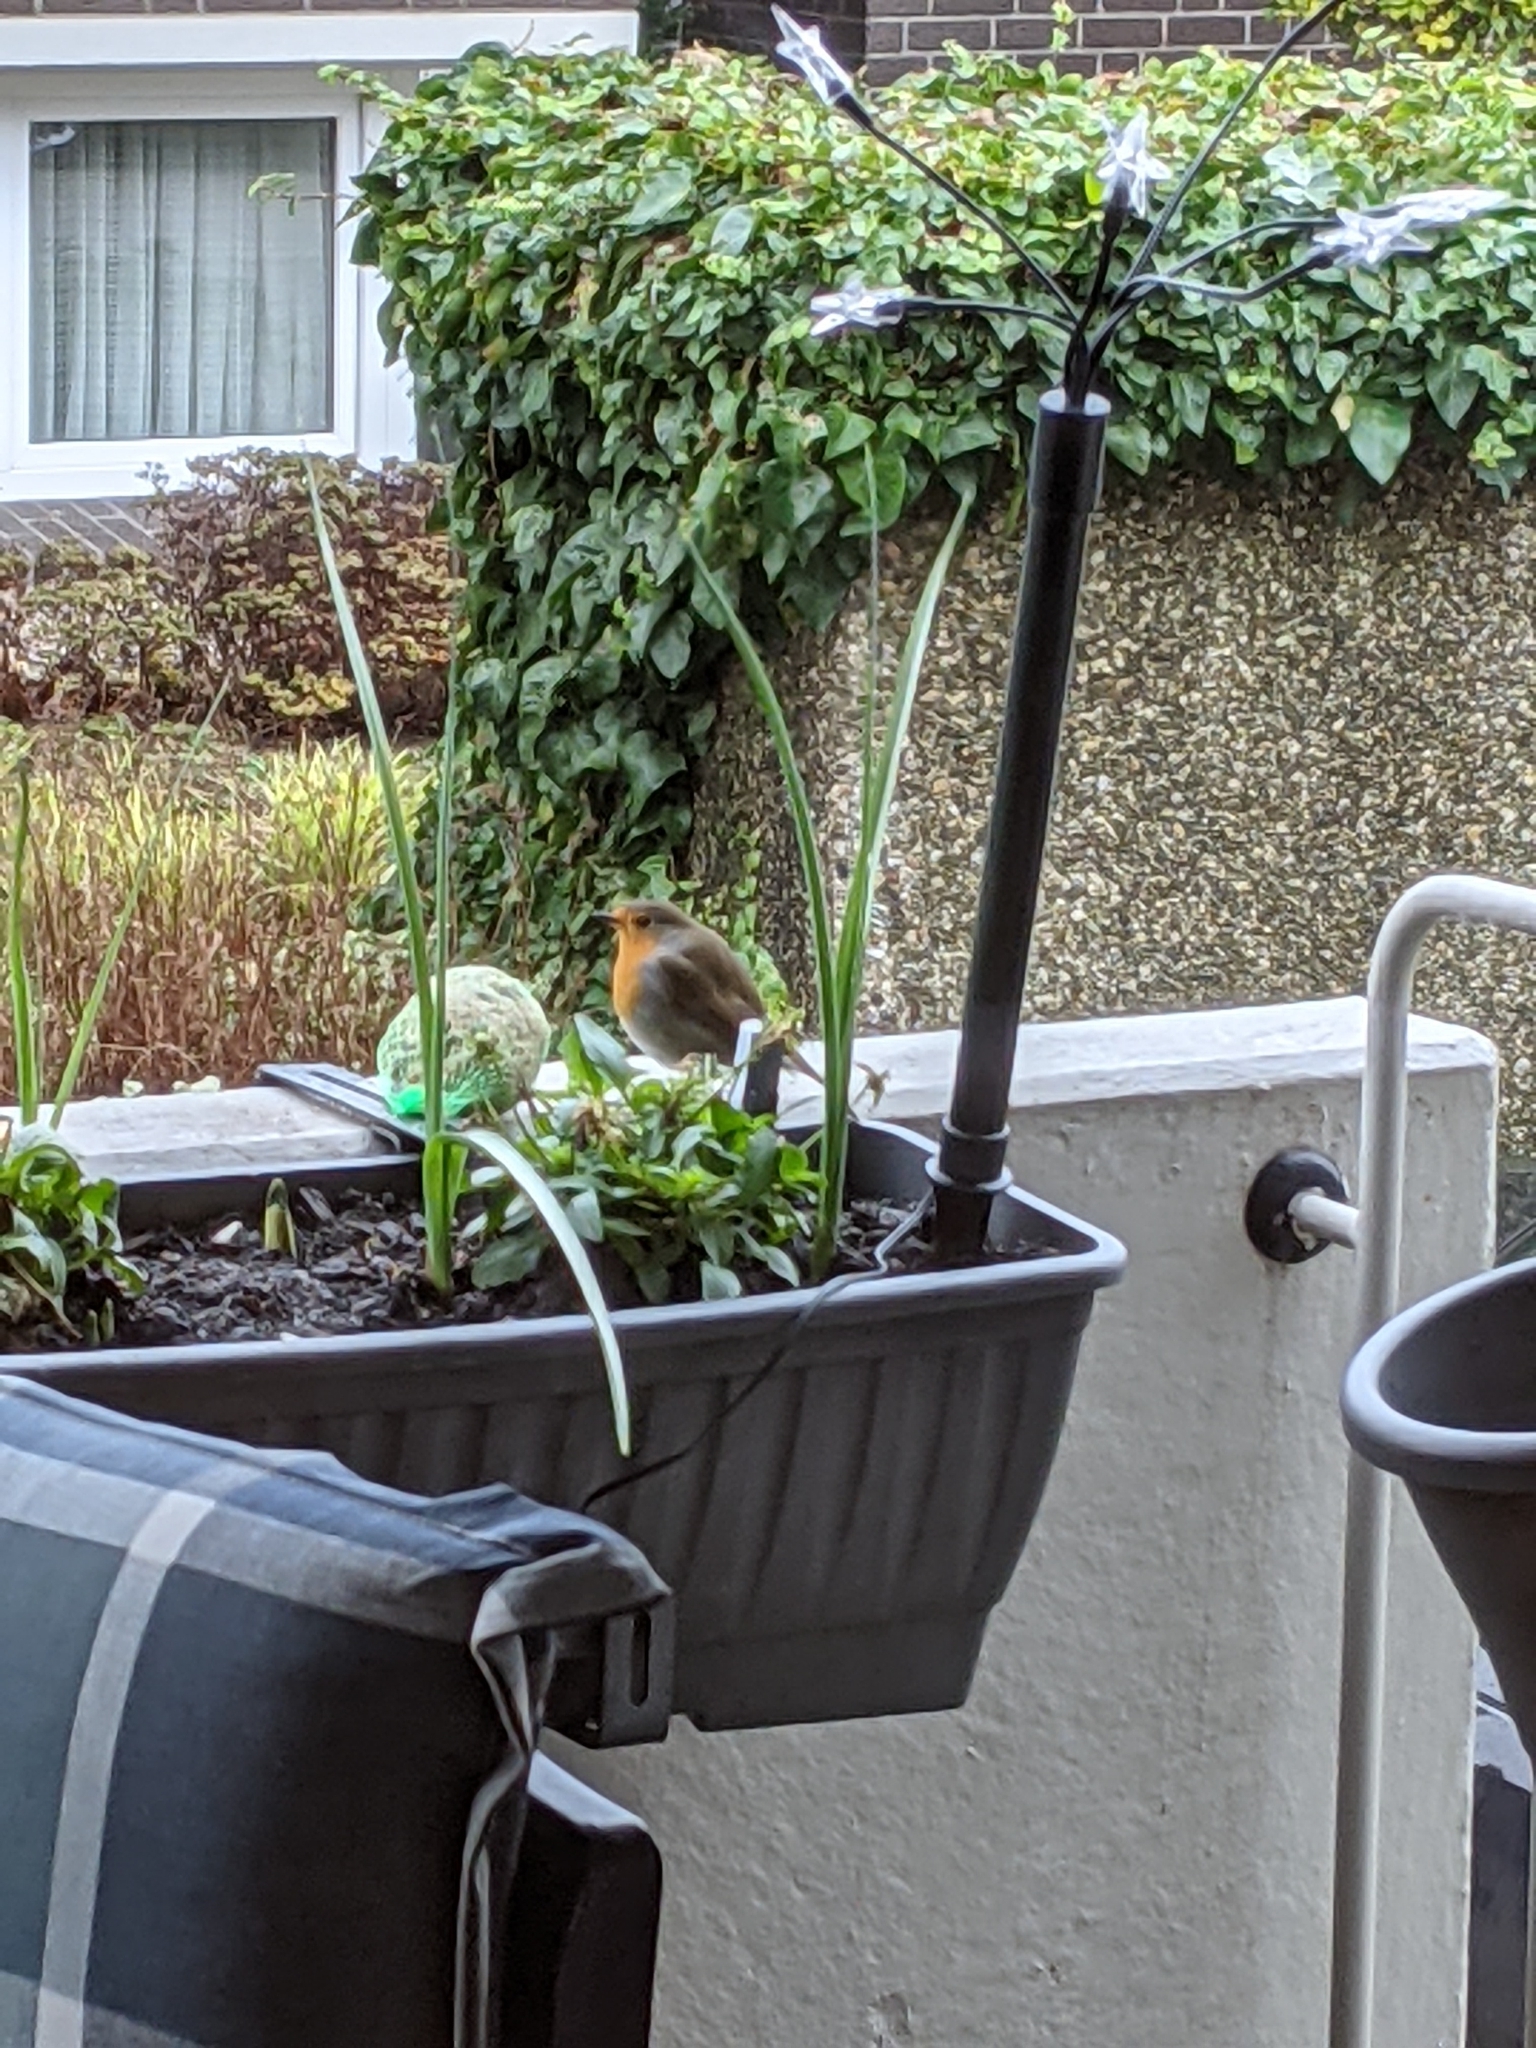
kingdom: Animalia
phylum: Chordata
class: Aves
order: Passeriformes
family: Muscicapidae
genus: Erithacus
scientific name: Erithacus rubecula
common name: European robin
